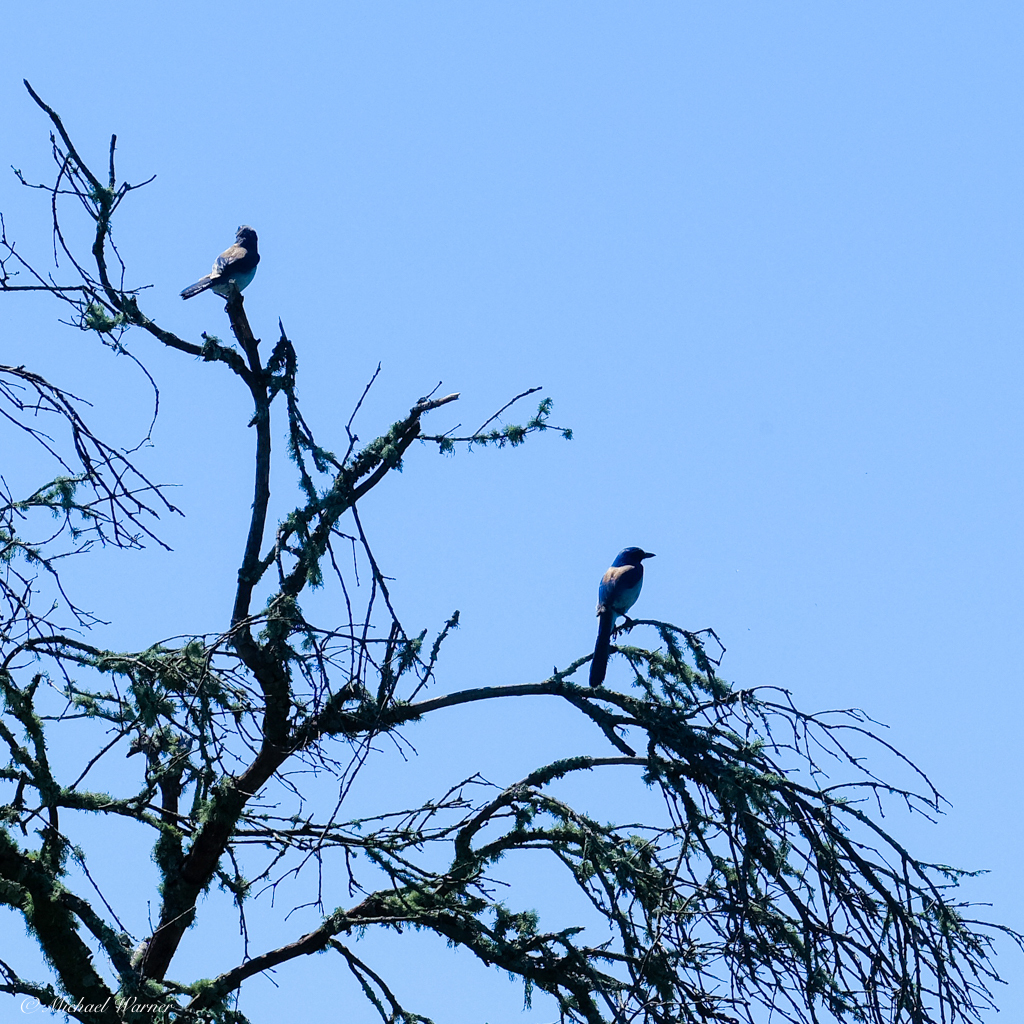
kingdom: Animalia
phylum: Chordata
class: Aves
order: Passeriformes
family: Corvidae
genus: Aphelocoma
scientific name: Aphelocoma californica
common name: California scrub-jay
